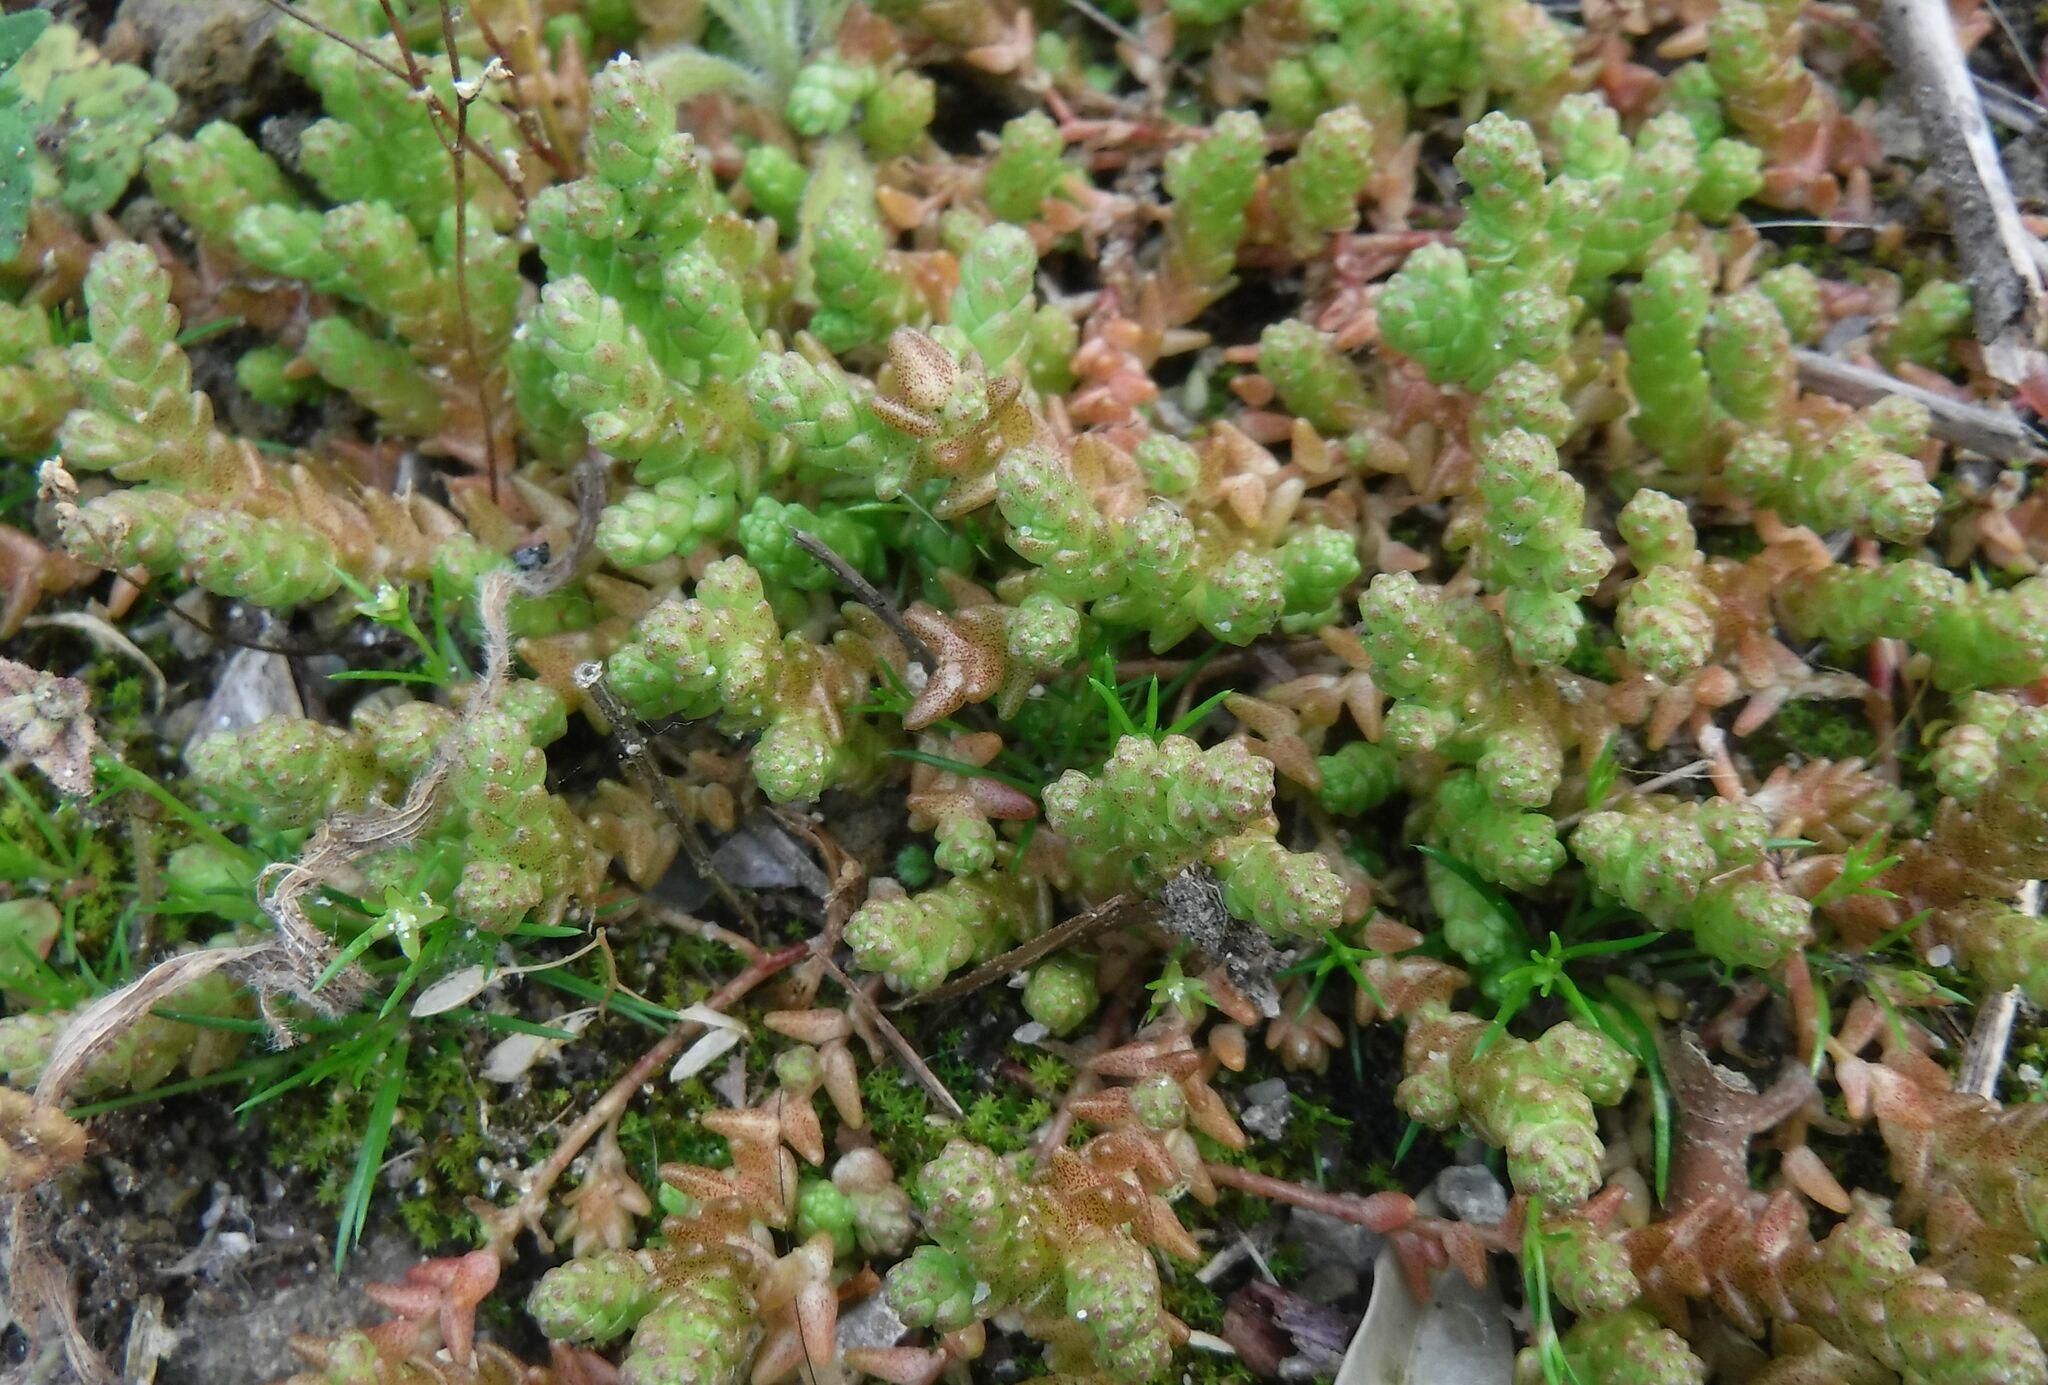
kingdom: Plantae
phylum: Tracheophyta
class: Magnoliopsida
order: Saxifragales
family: Crassulaceae
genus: Sedum
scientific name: Sedum acre
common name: Biting stonecrop
